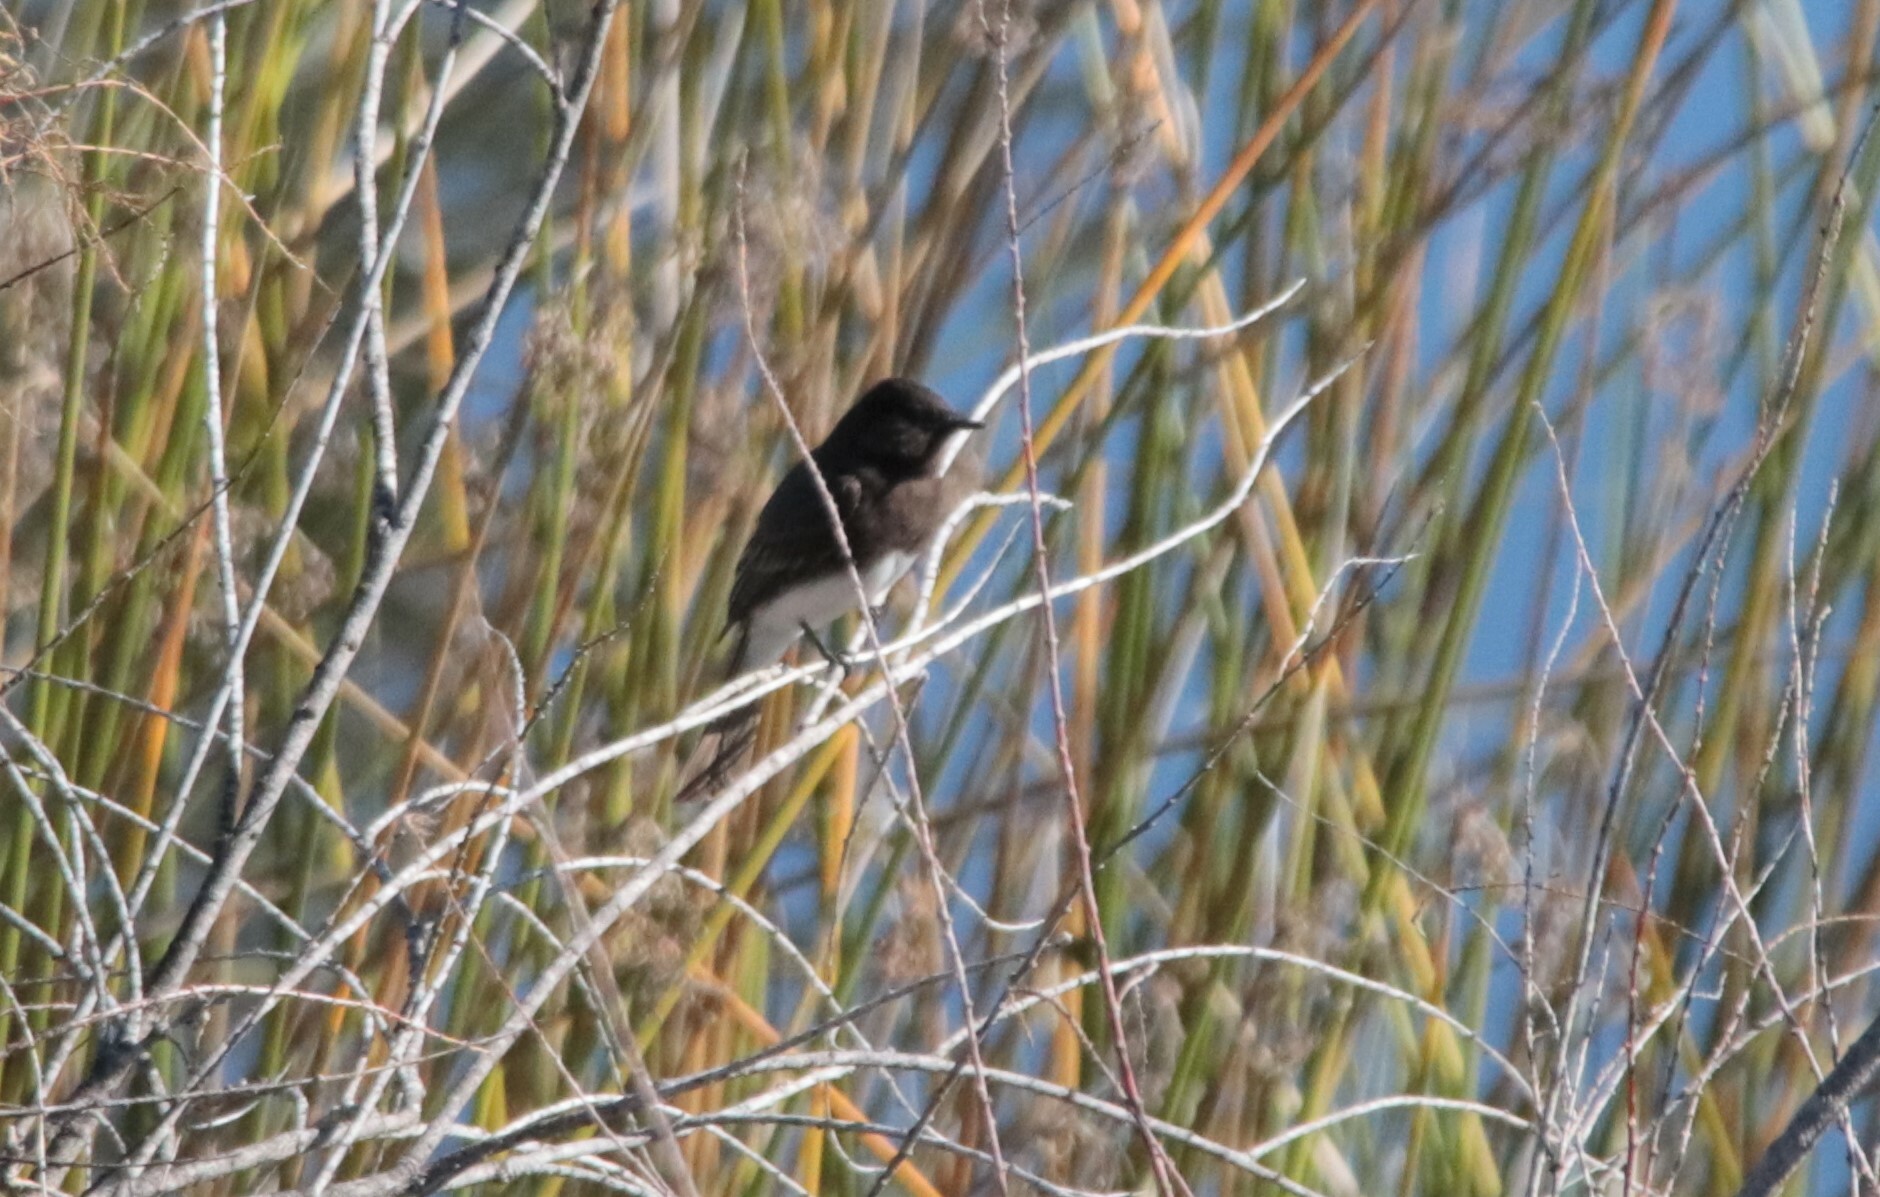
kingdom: Animalia
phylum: Chordata
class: Aves
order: Passeriformes
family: Tyrannidae
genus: Sayornis
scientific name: Sayornis nigricans
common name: Black phoebe
